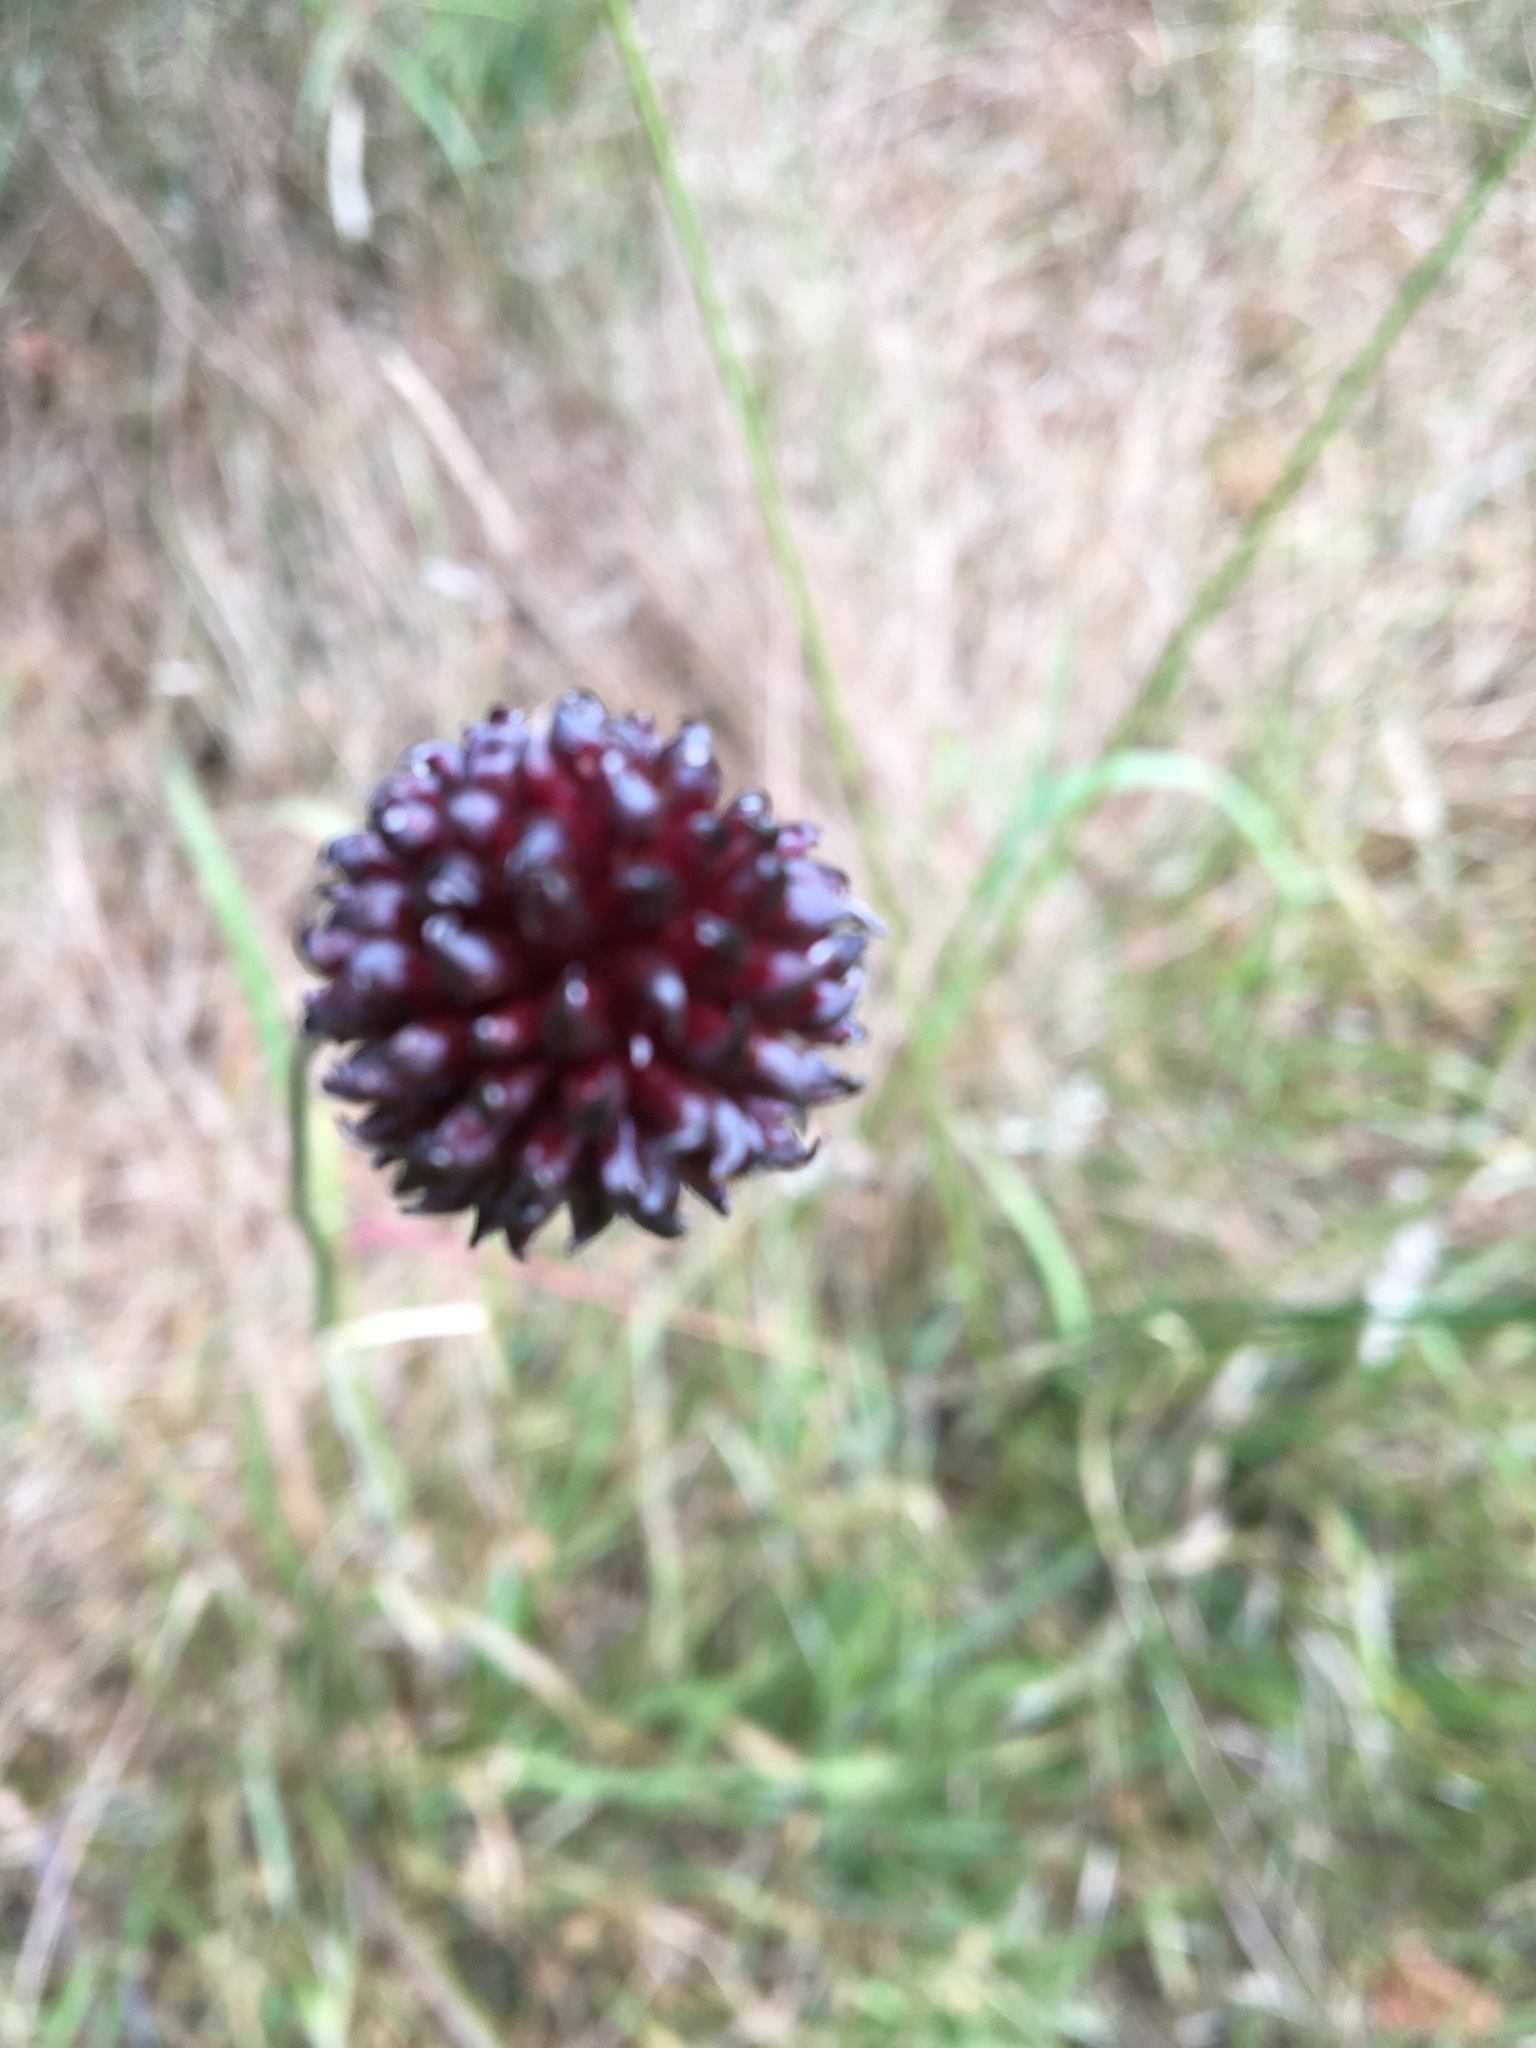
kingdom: Plantae
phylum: Tracheophyta
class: Liliopsida
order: Asparagales
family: Amaryllidaceae
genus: Allium
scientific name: Allium vineale
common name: Crow garlic
